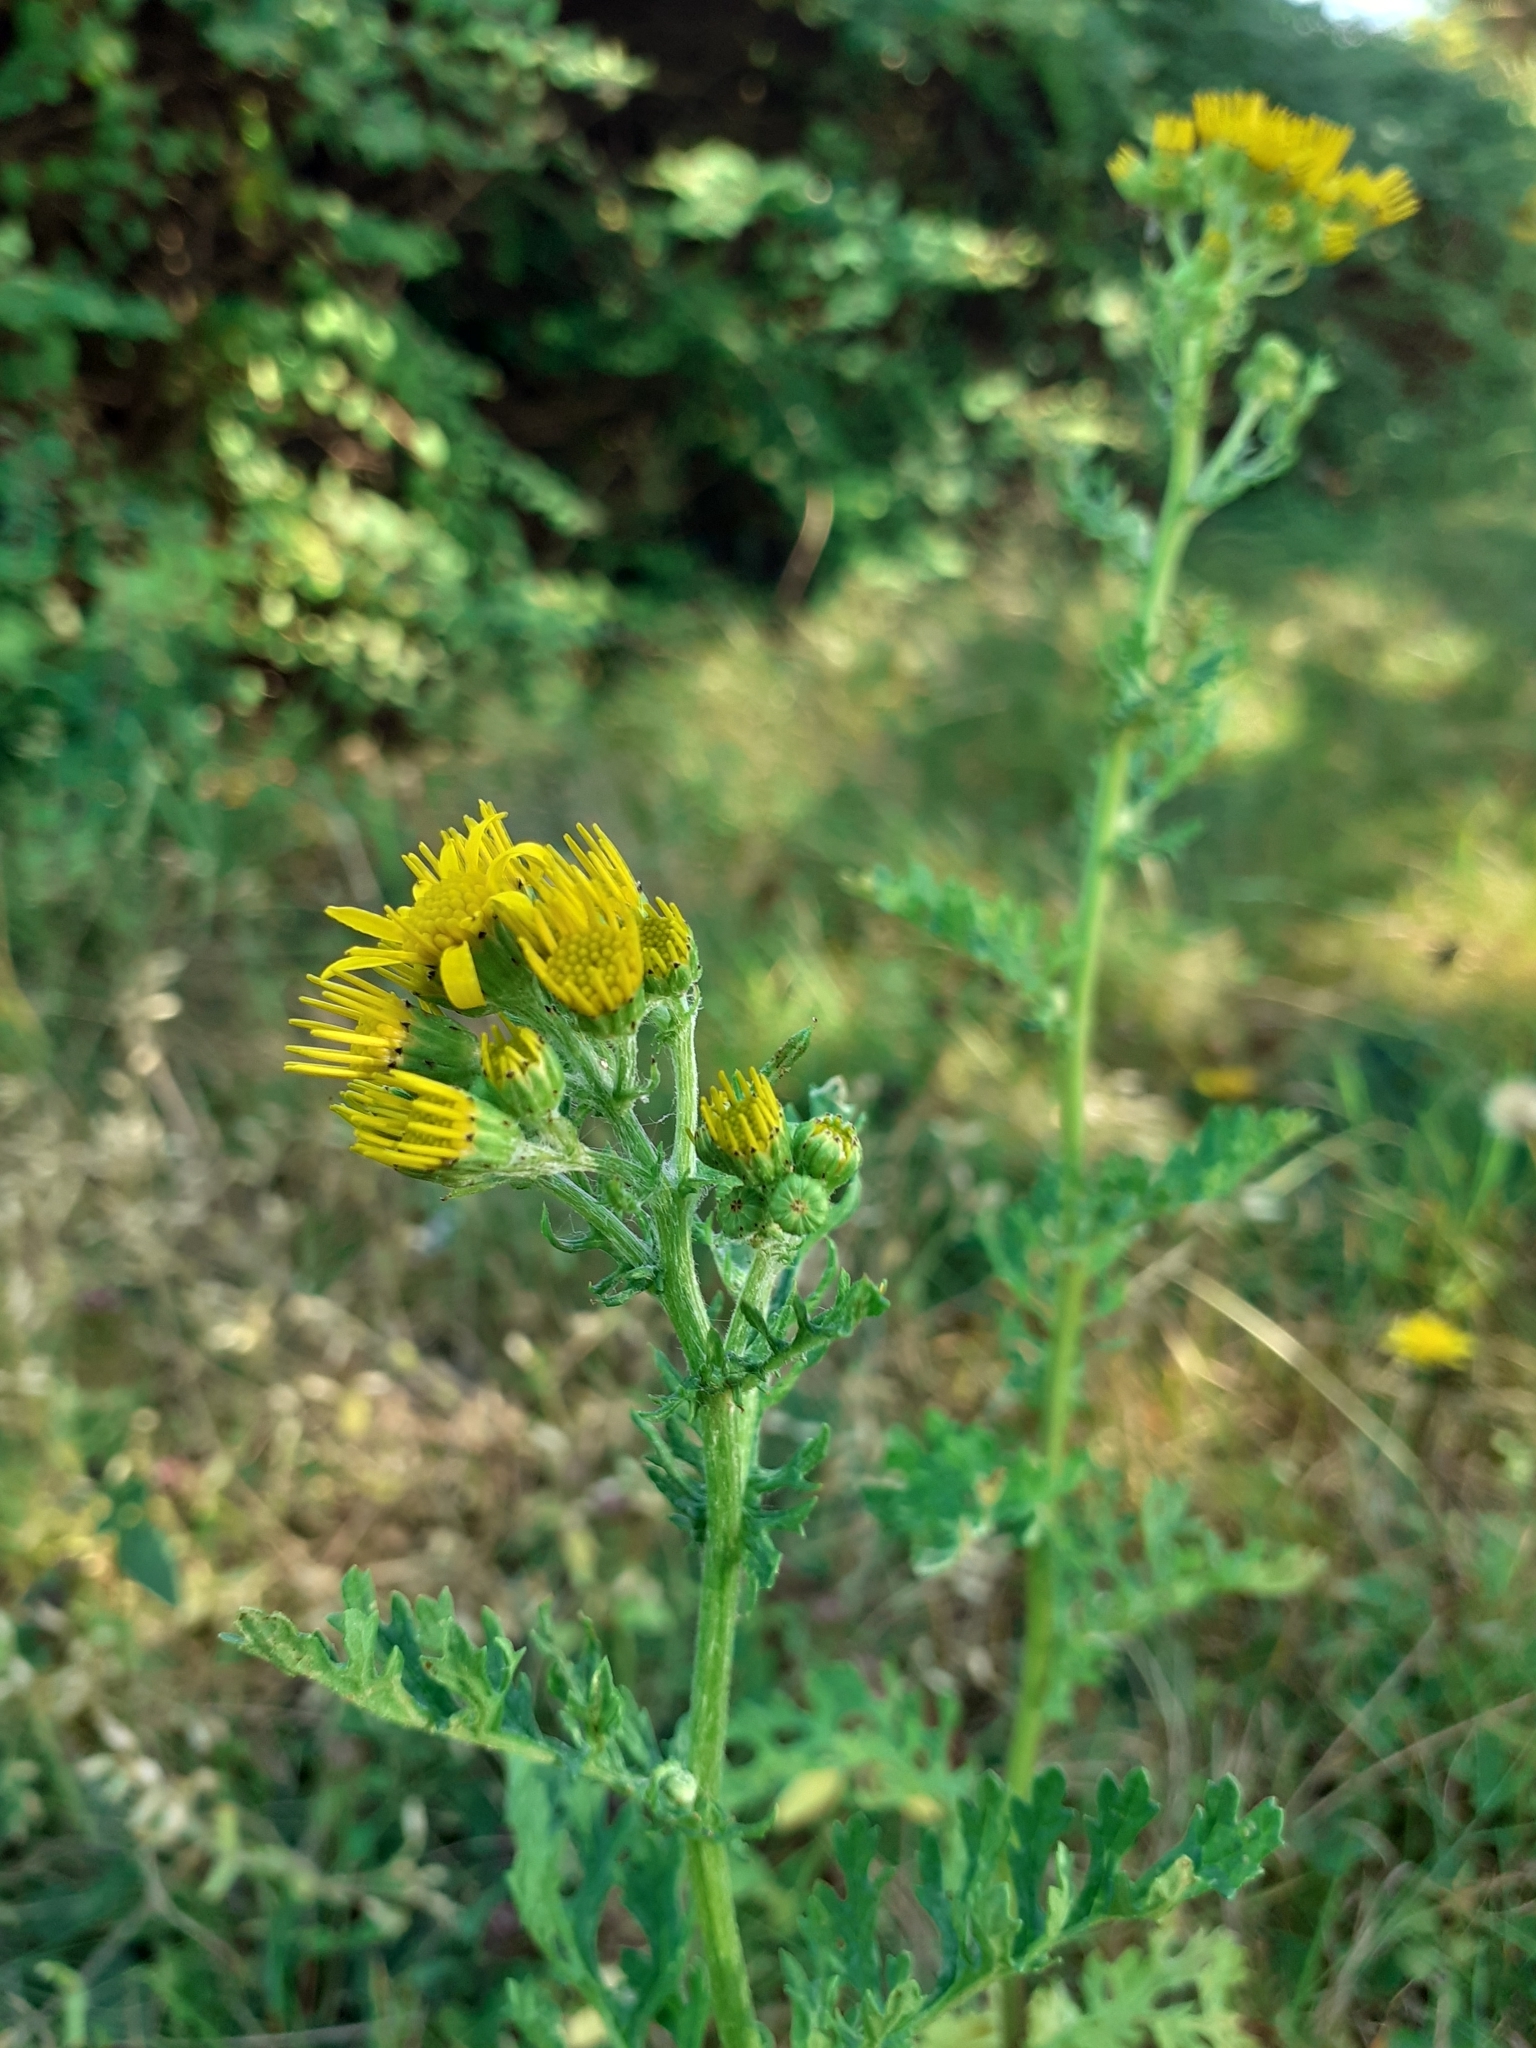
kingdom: Plantae
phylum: Tracheophyta
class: Magnoliopsida
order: Asterales
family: Asteraceae
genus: Jacobaea
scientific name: Jacobaea vulgaris
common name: Stinking willie
